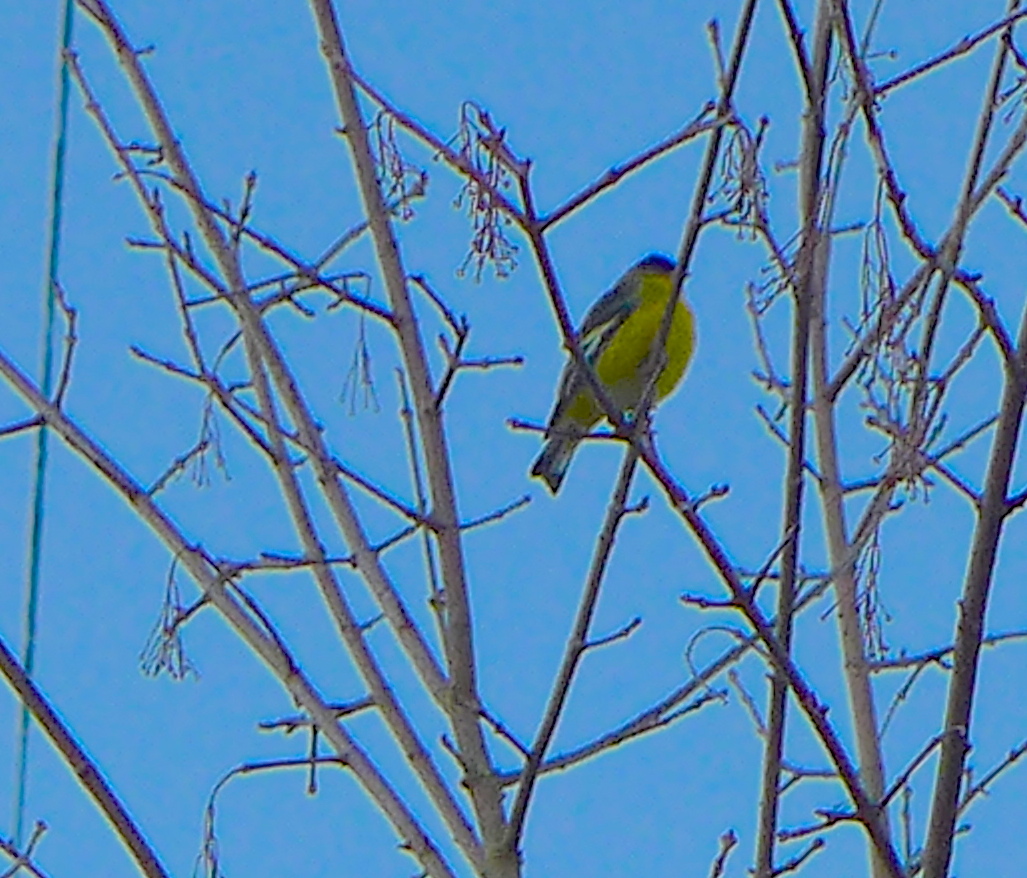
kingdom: Animalia
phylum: Chordata
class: Aves
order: Passeriformes
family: Fringillidae
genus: Spinus
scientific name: Spinus psaltria
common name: Lesser goldfinch
